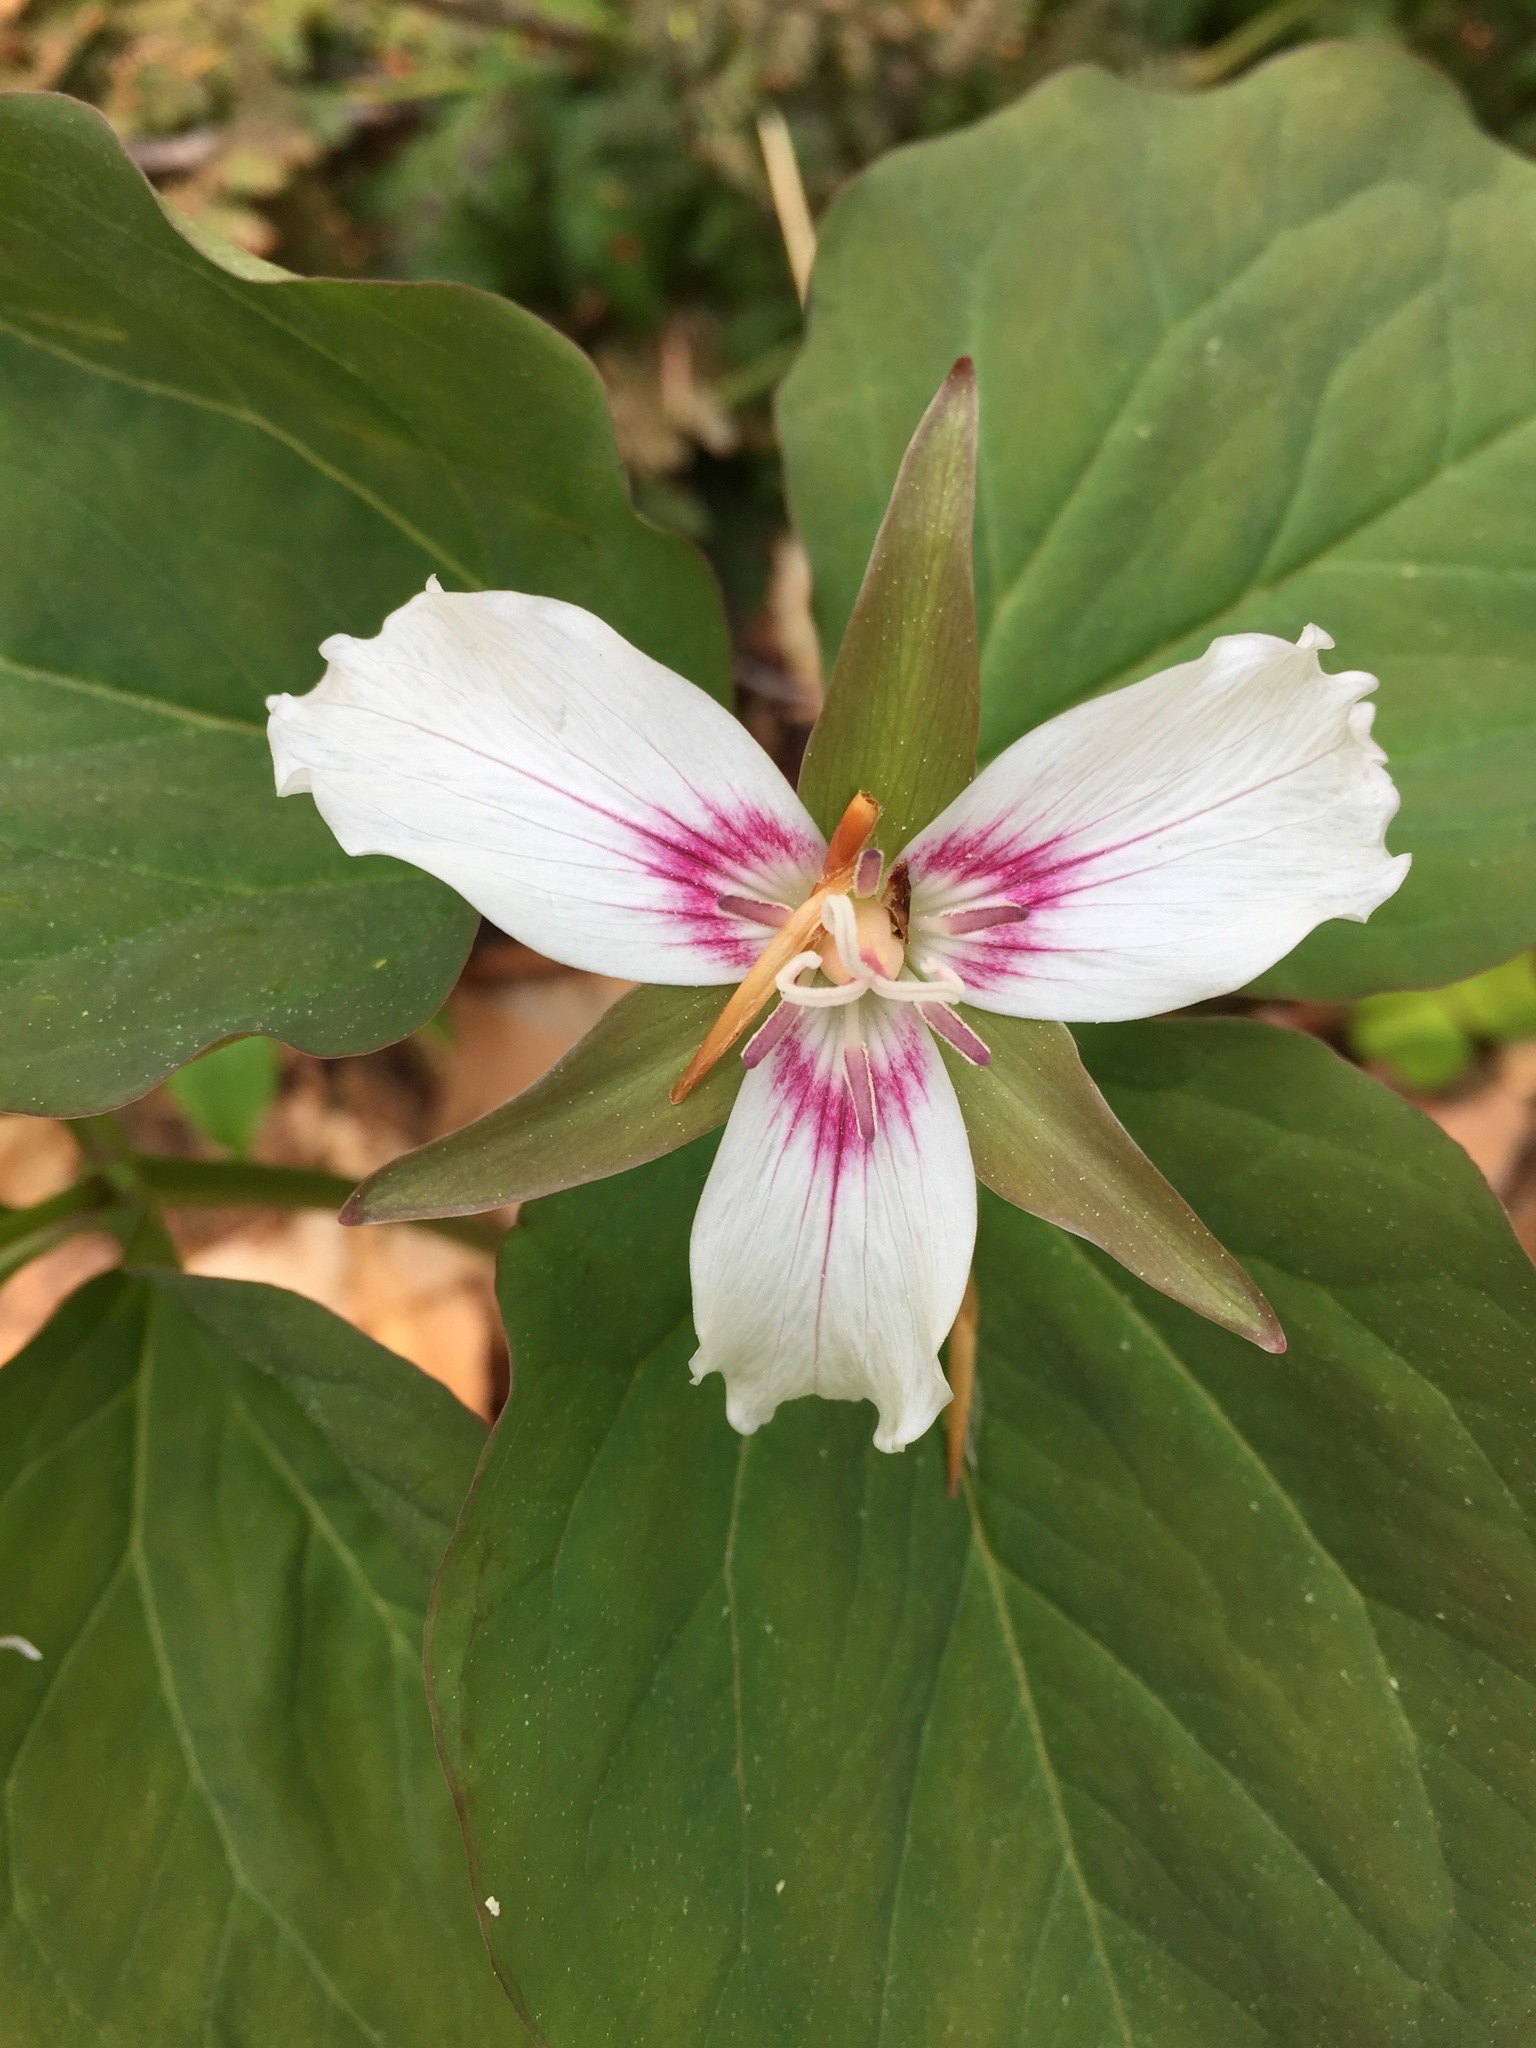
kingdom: Plantae
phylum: Tracheophyta
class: Liliopsida
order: Liliales
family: Melanthiaceae
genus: Trillium
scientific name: Trillium undulatum
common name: Paint trillium
